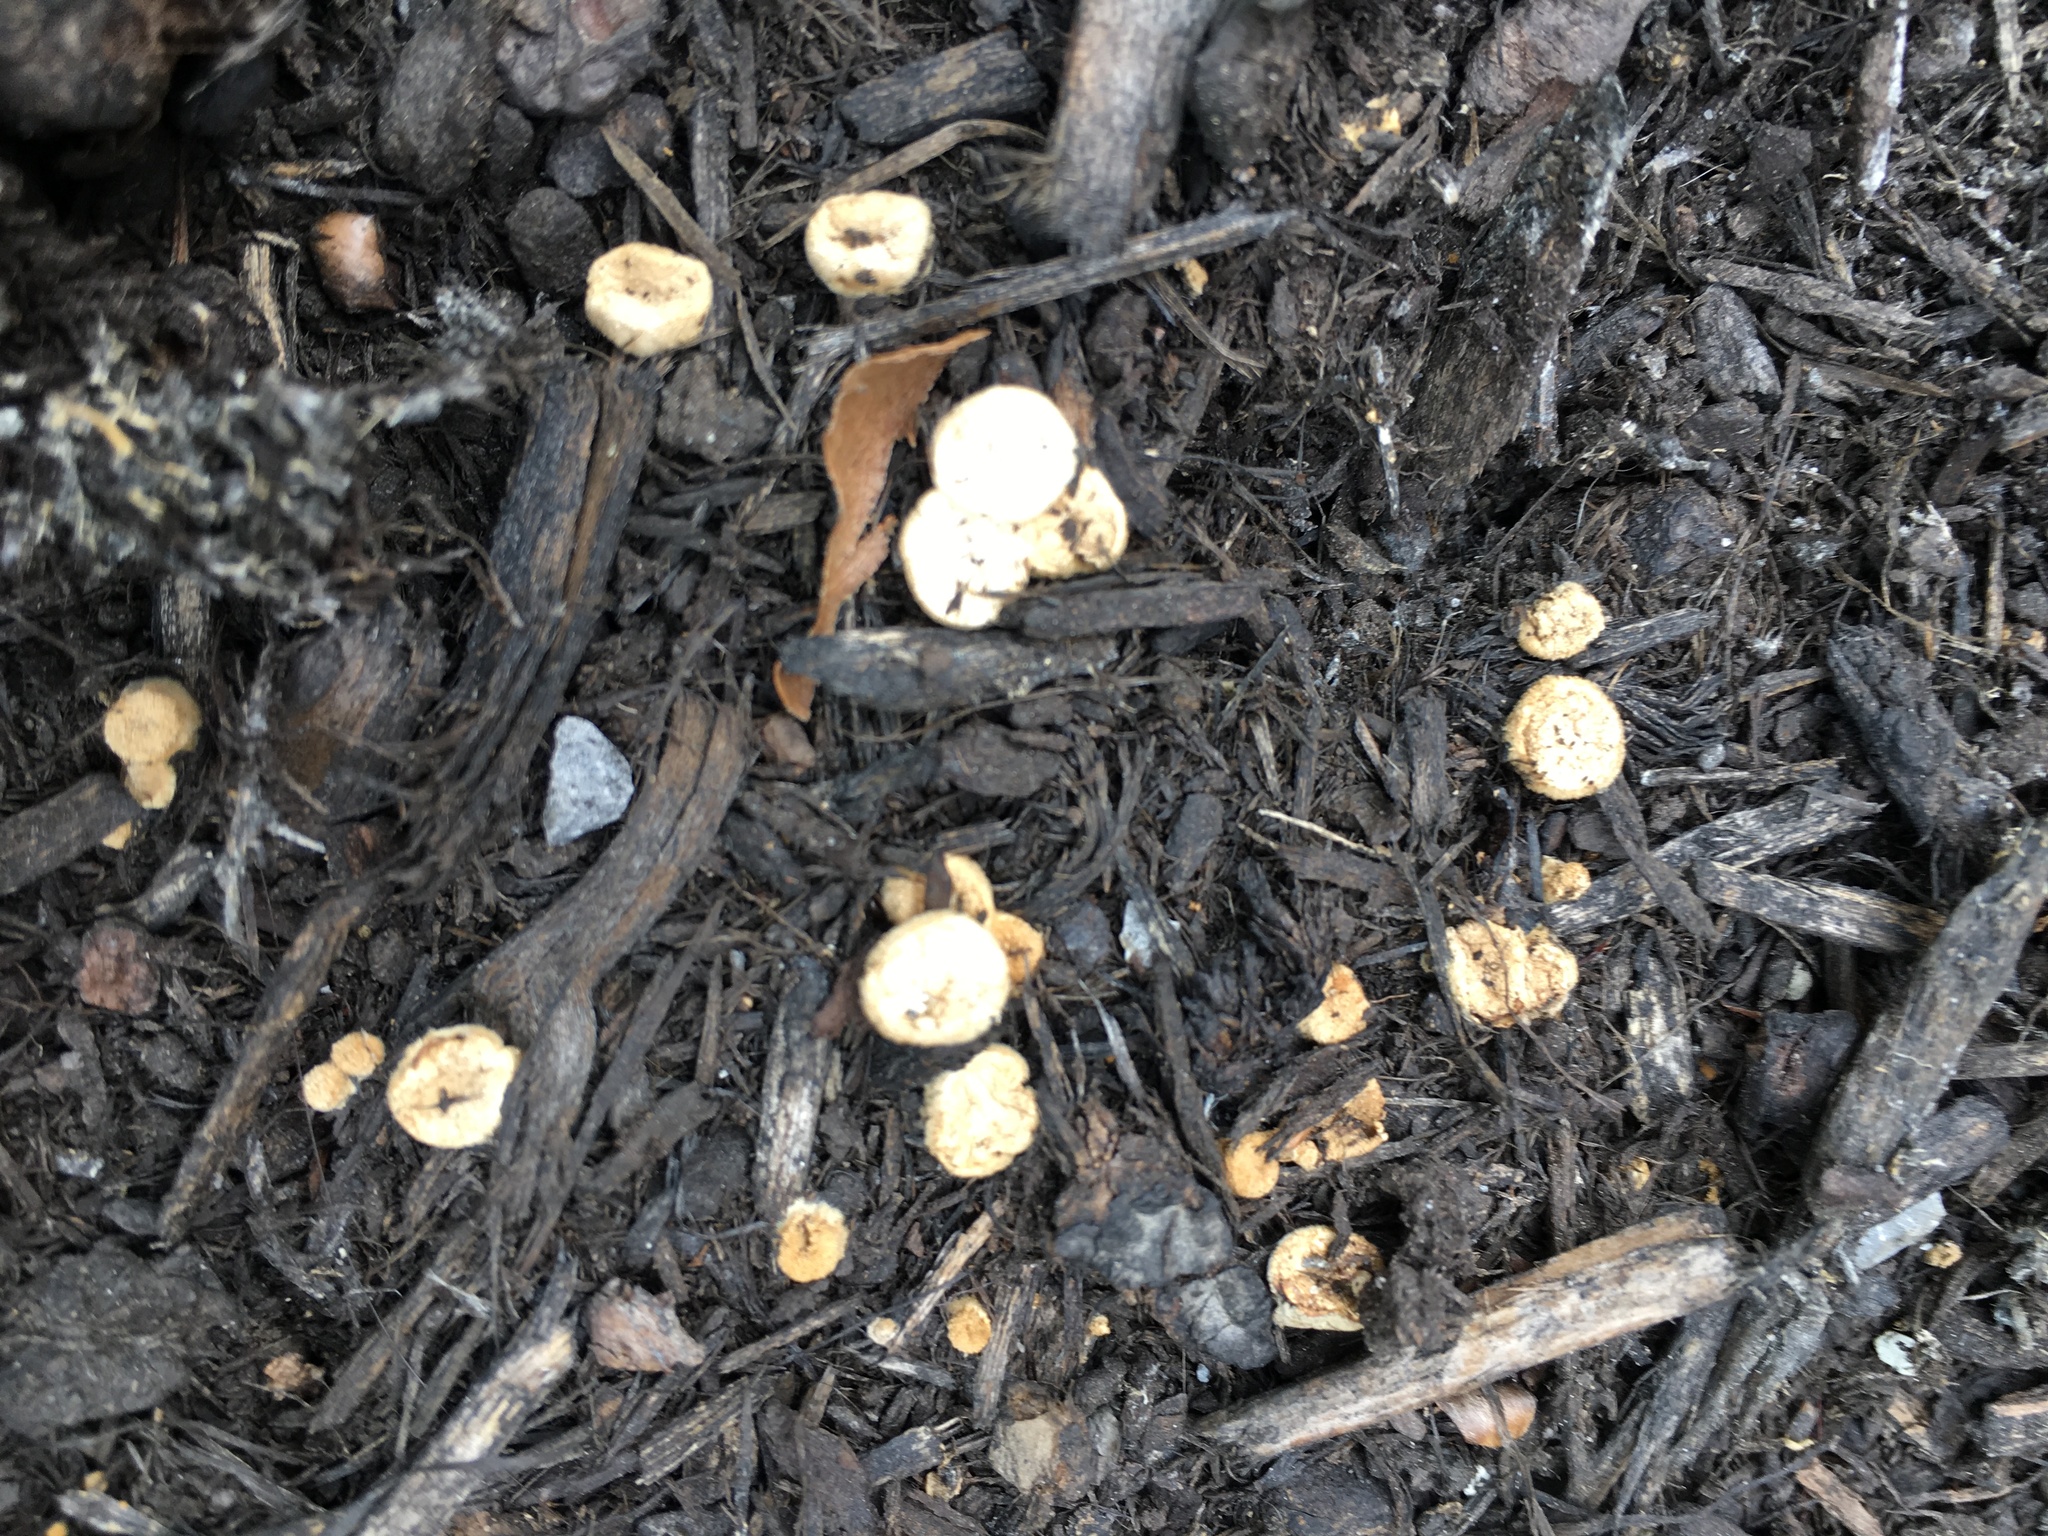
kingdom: Fungi
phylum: Basidiomycota
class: Agaricomycetes
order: Agaricales
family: Nidulariaceae
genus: Crucibulum
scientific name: Crucibulum laeve
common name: Common bird's nest
